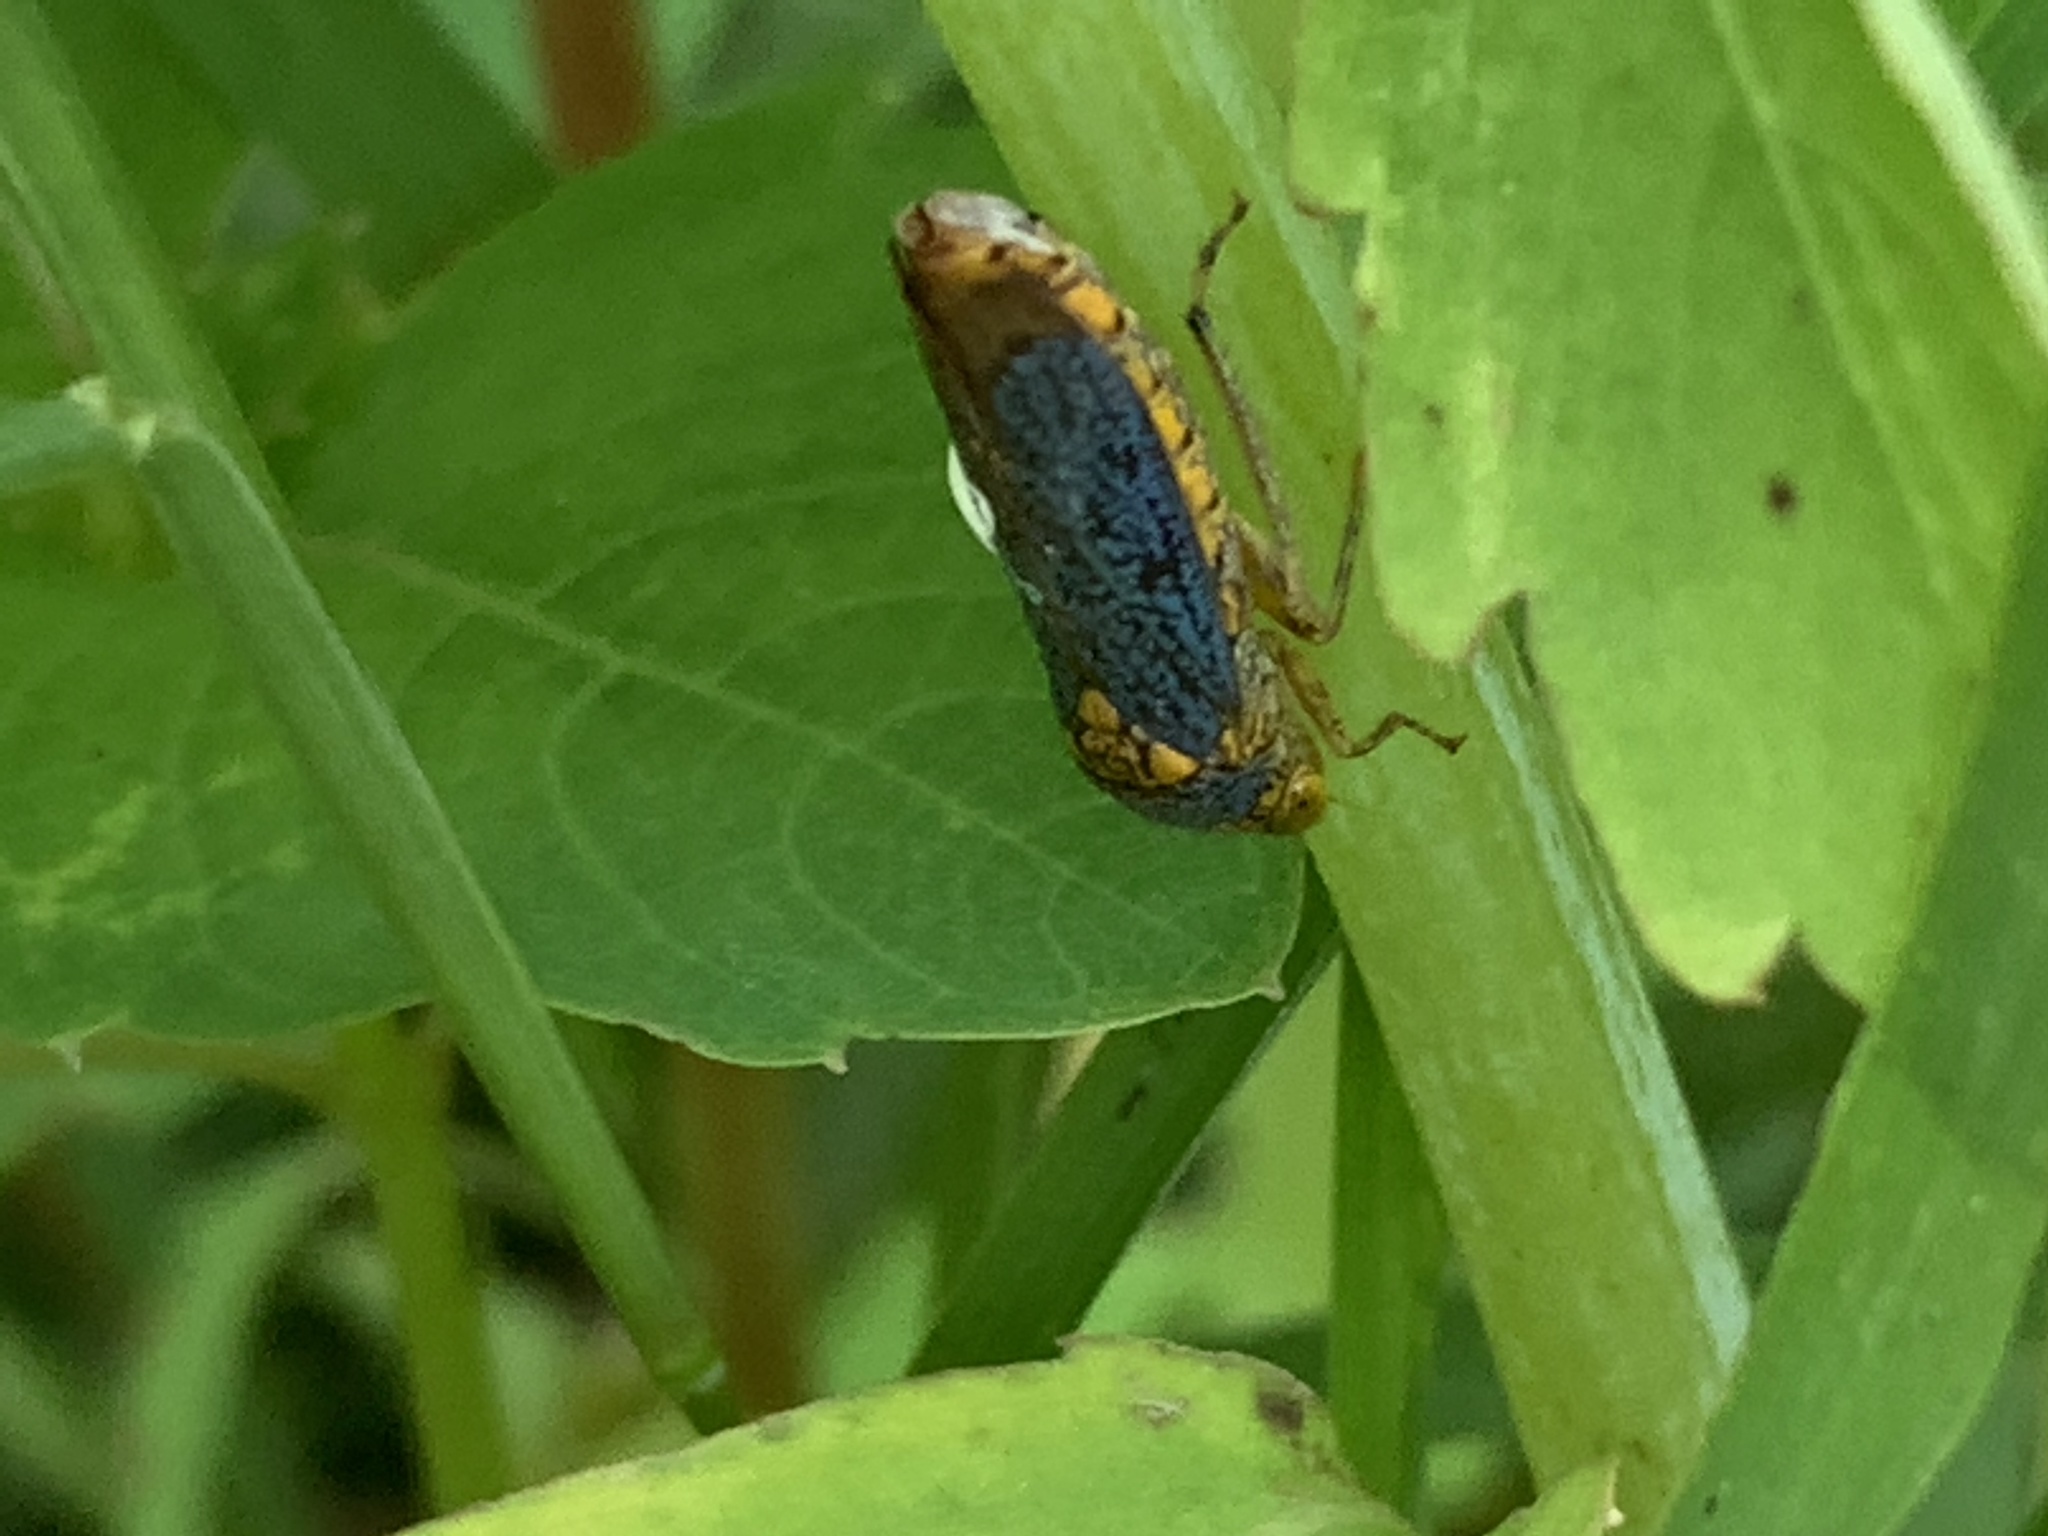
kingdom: Animalia
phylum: Arthropoda
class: Insecta
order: Hemiptera
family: Cicadellidae
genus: Oncometopia
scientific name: Oncometopia orbona
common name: Broad-headed sharpshooter
